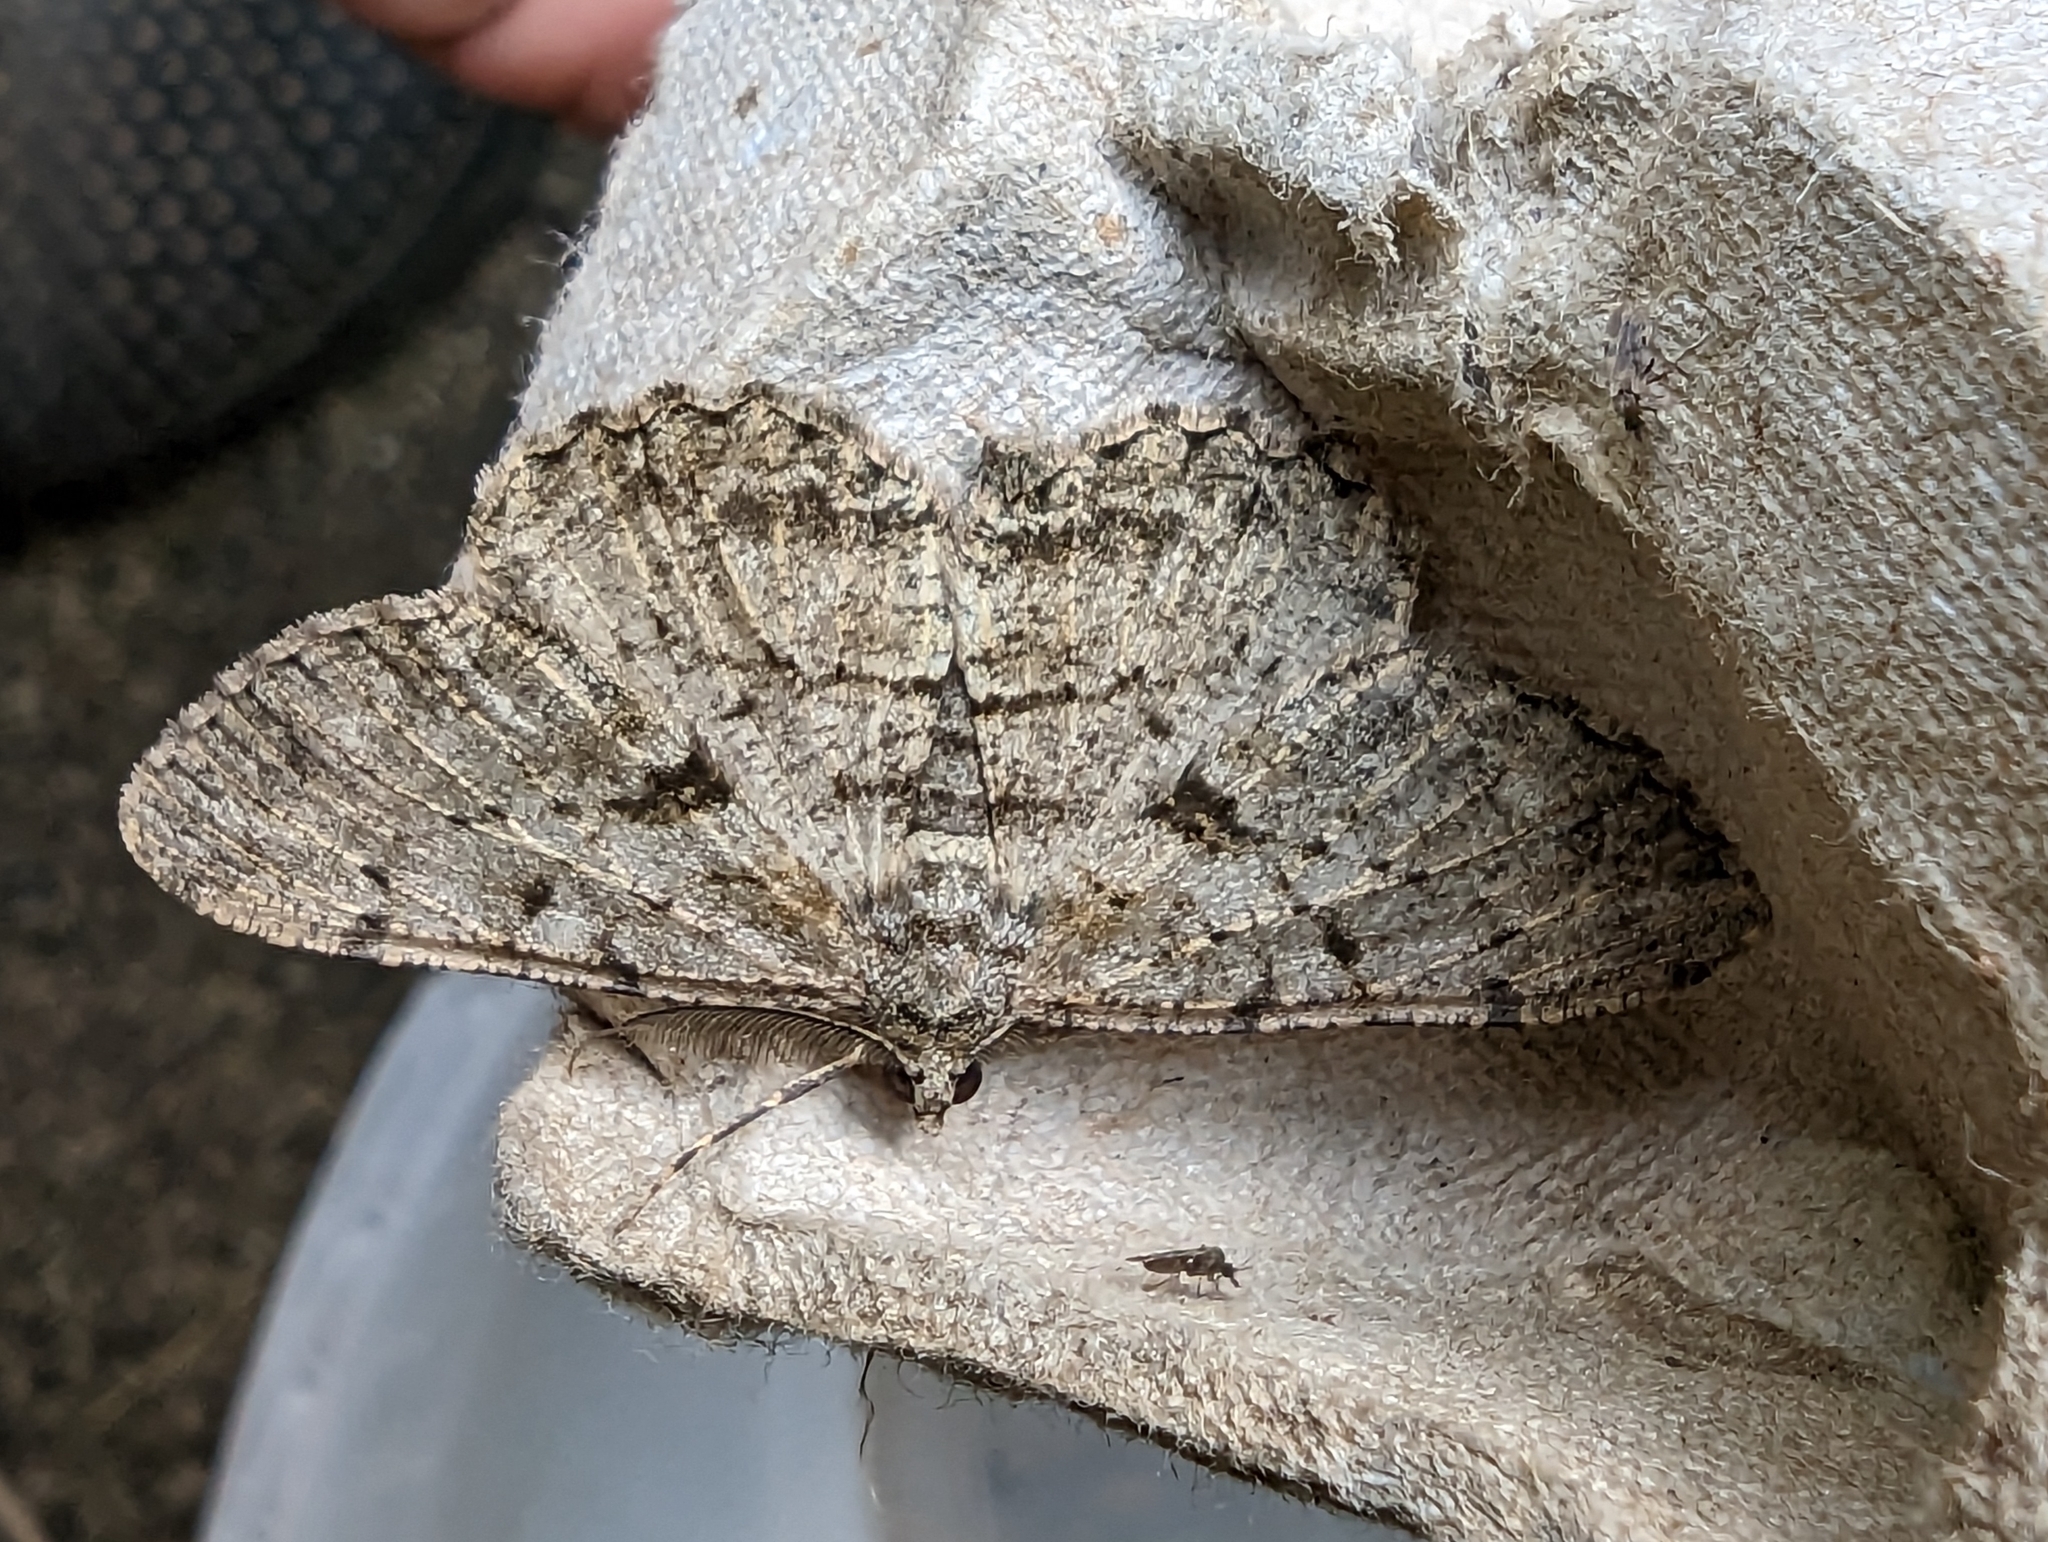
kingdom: Animalia
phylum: Arthropoda
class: Insecta
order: Lepidoptera
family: Geometridae
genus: Peribatodes
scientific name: Peribatodes rhomboidaria
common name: Willow beauty
